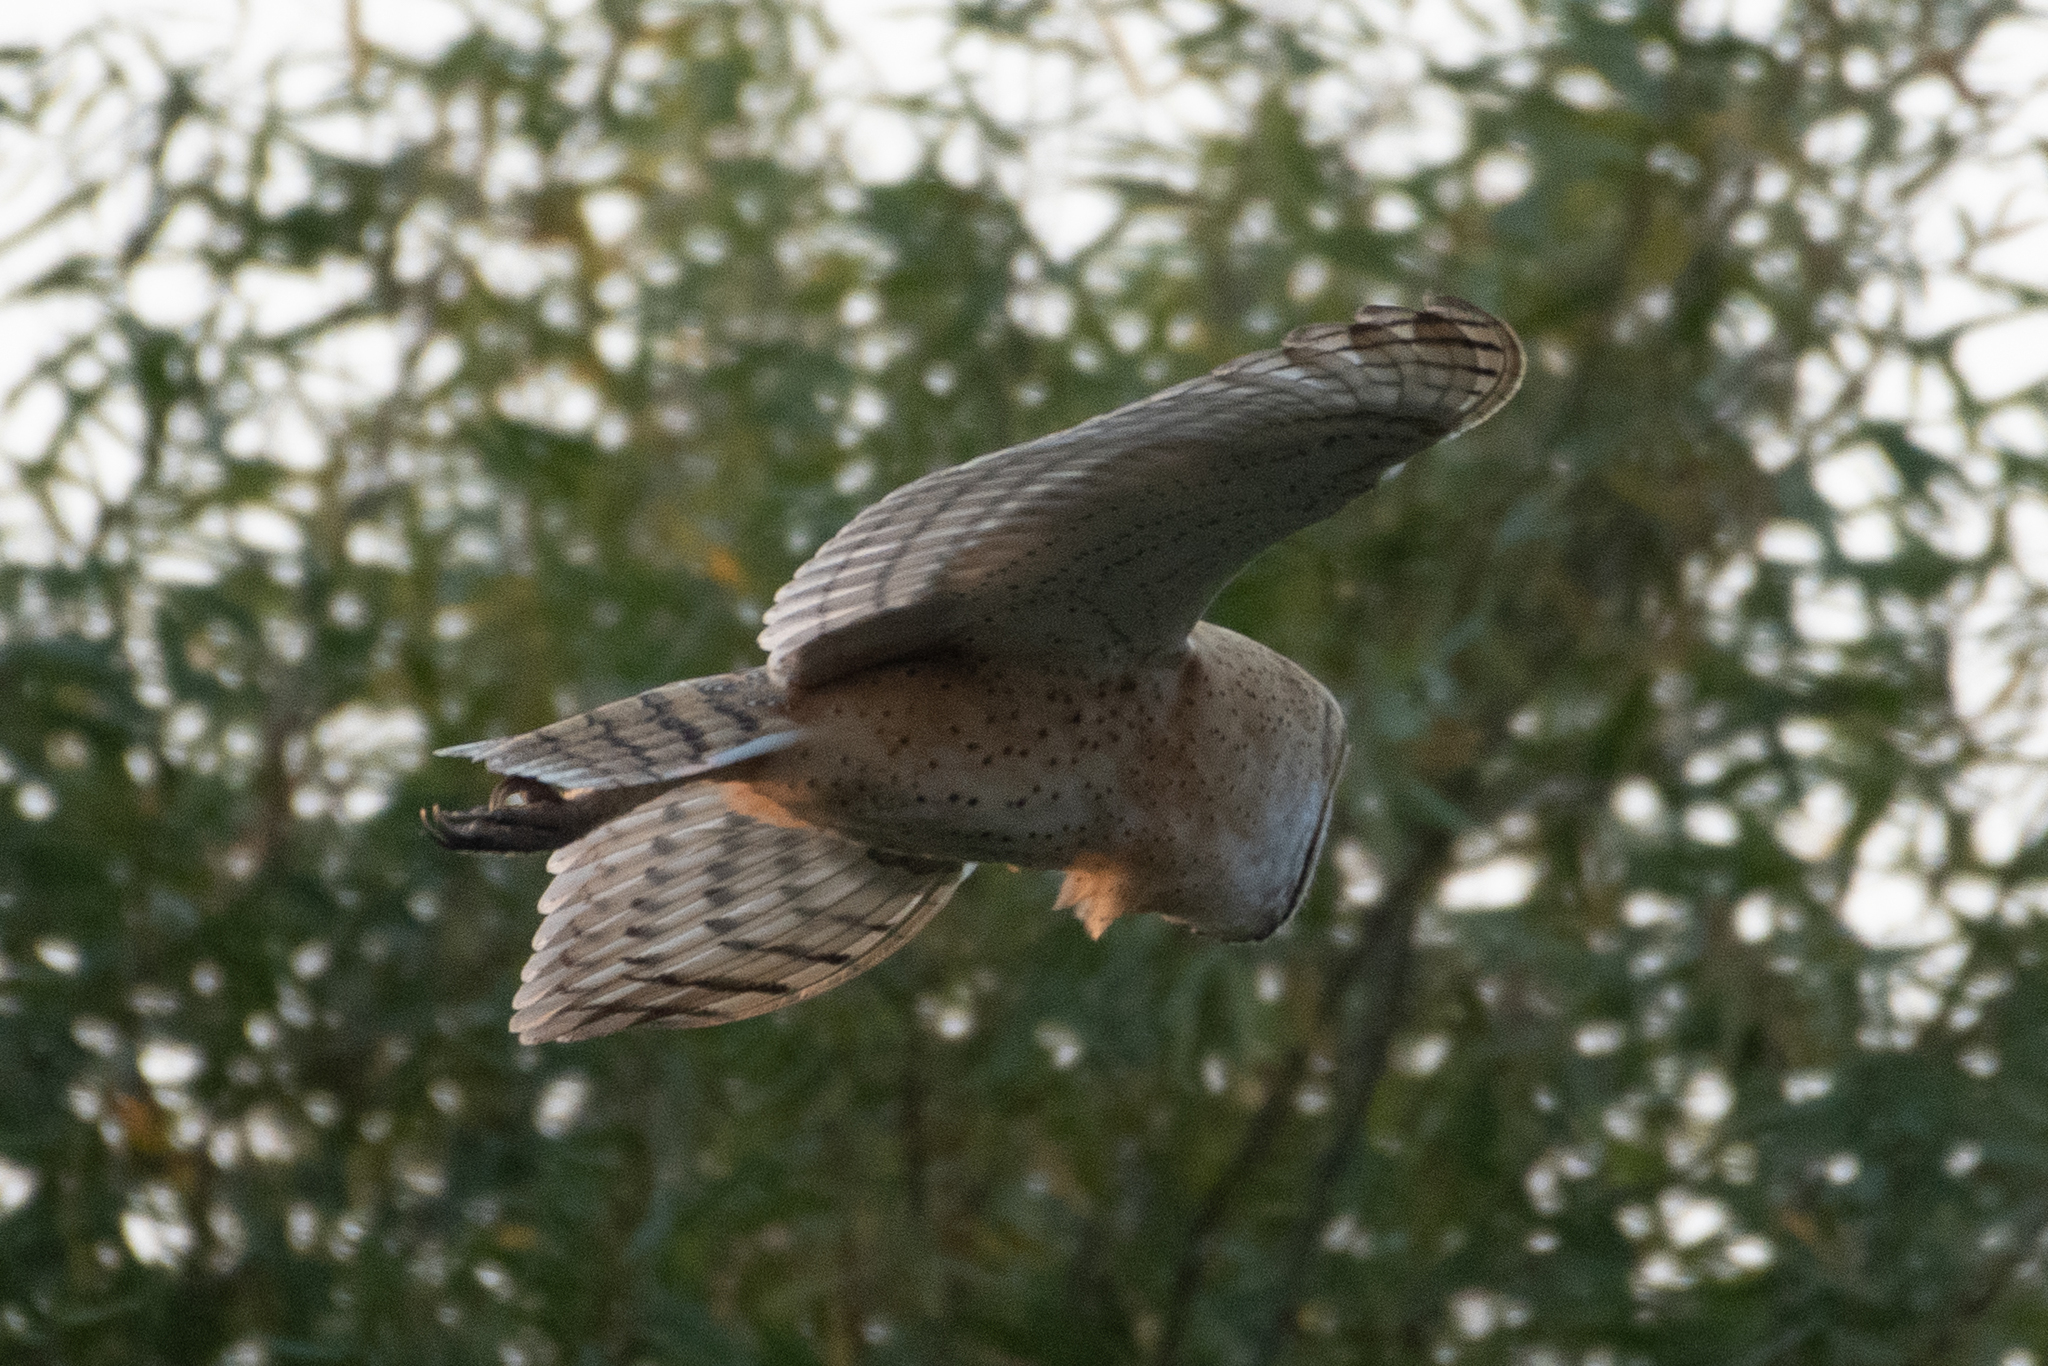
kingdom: Animalia
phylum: Chordata
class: Aves
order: Strigiformes
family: Tytonidae
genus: Tyto
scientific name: Tyto alba
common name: Barn owl
